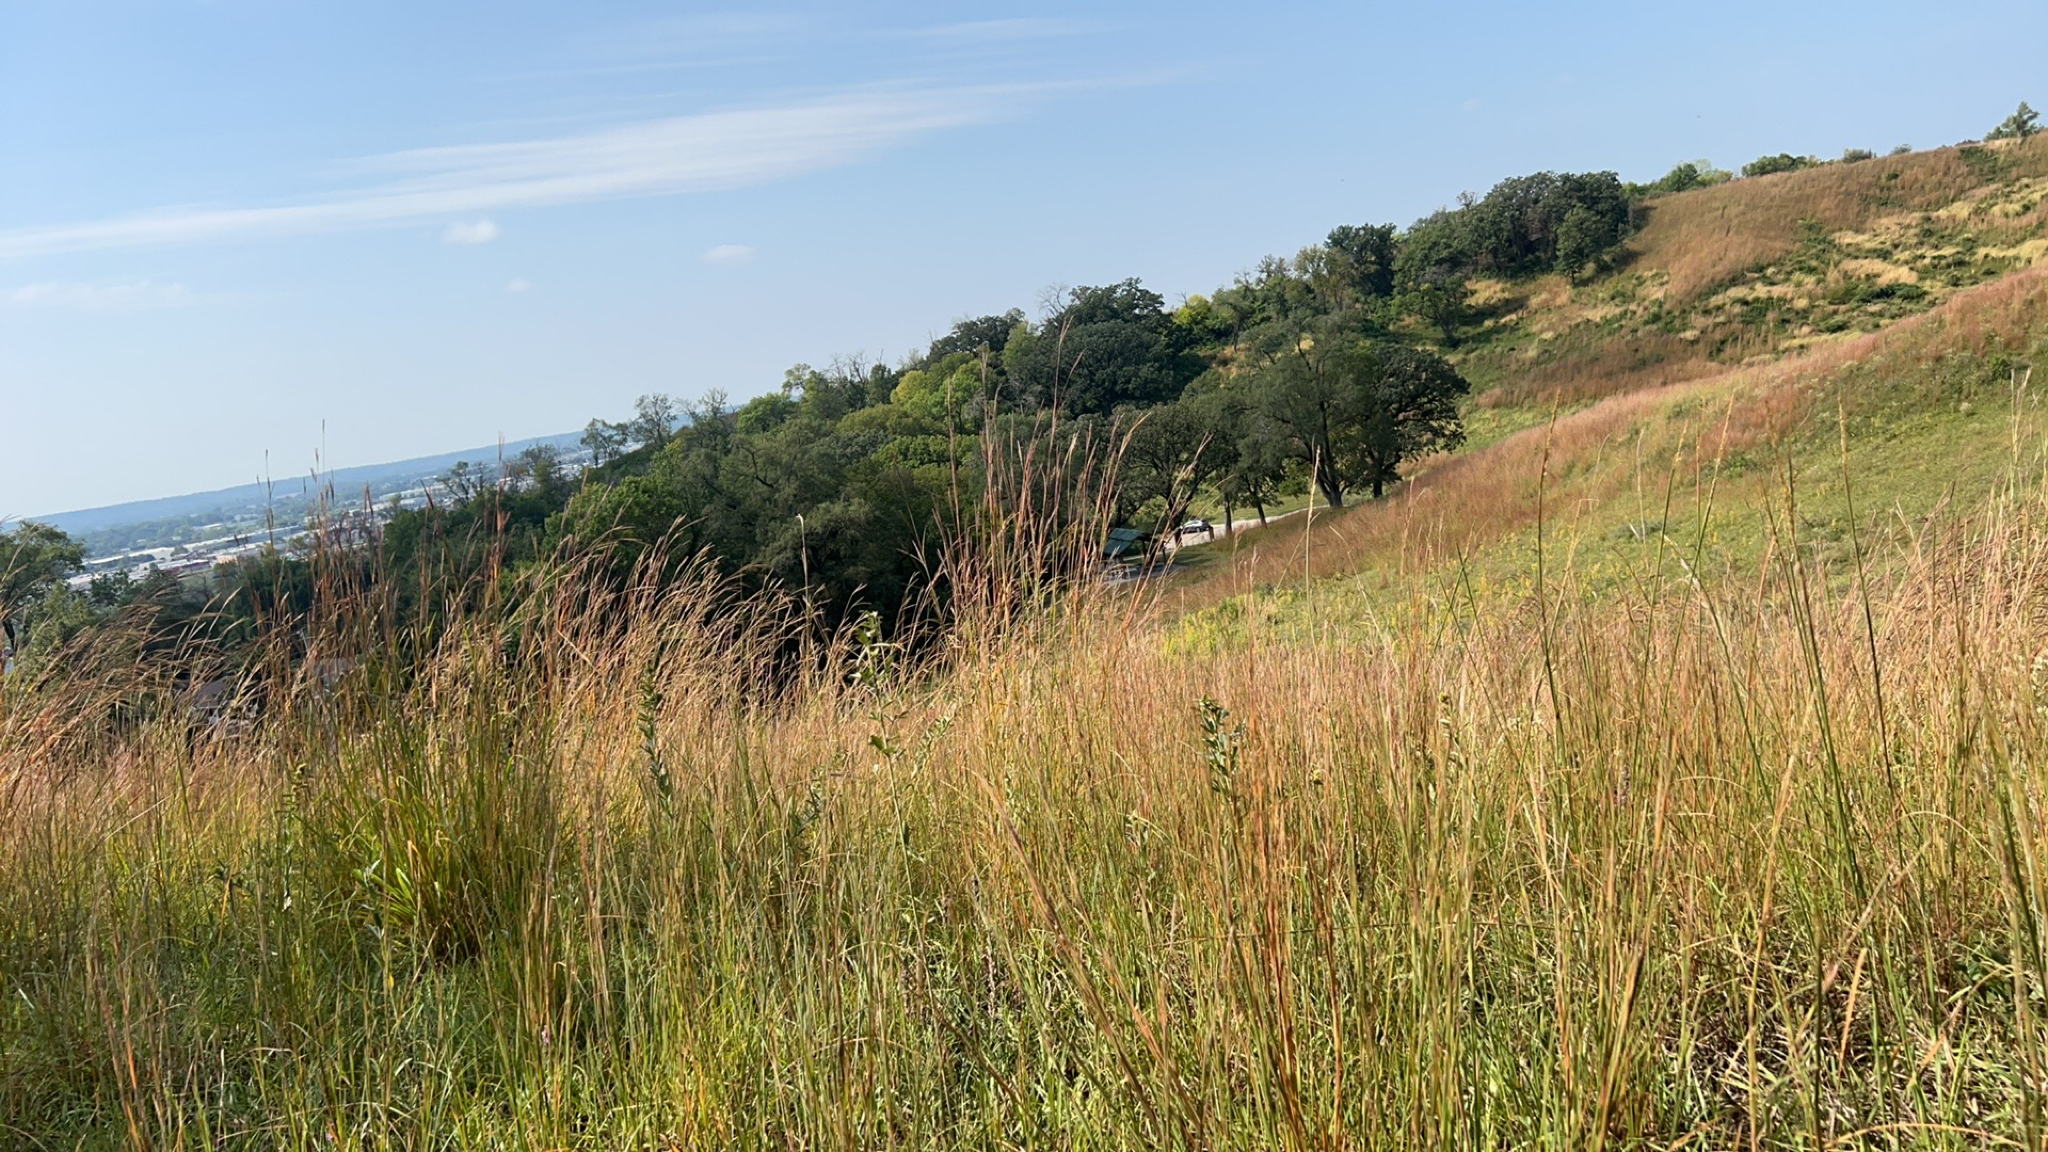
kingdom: Plantae
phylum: Tracheophyta
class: Liliopsida
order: Poales
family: Poaceae
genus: Andropogon
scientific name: Andropogon gerardi
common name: Big bluestem
